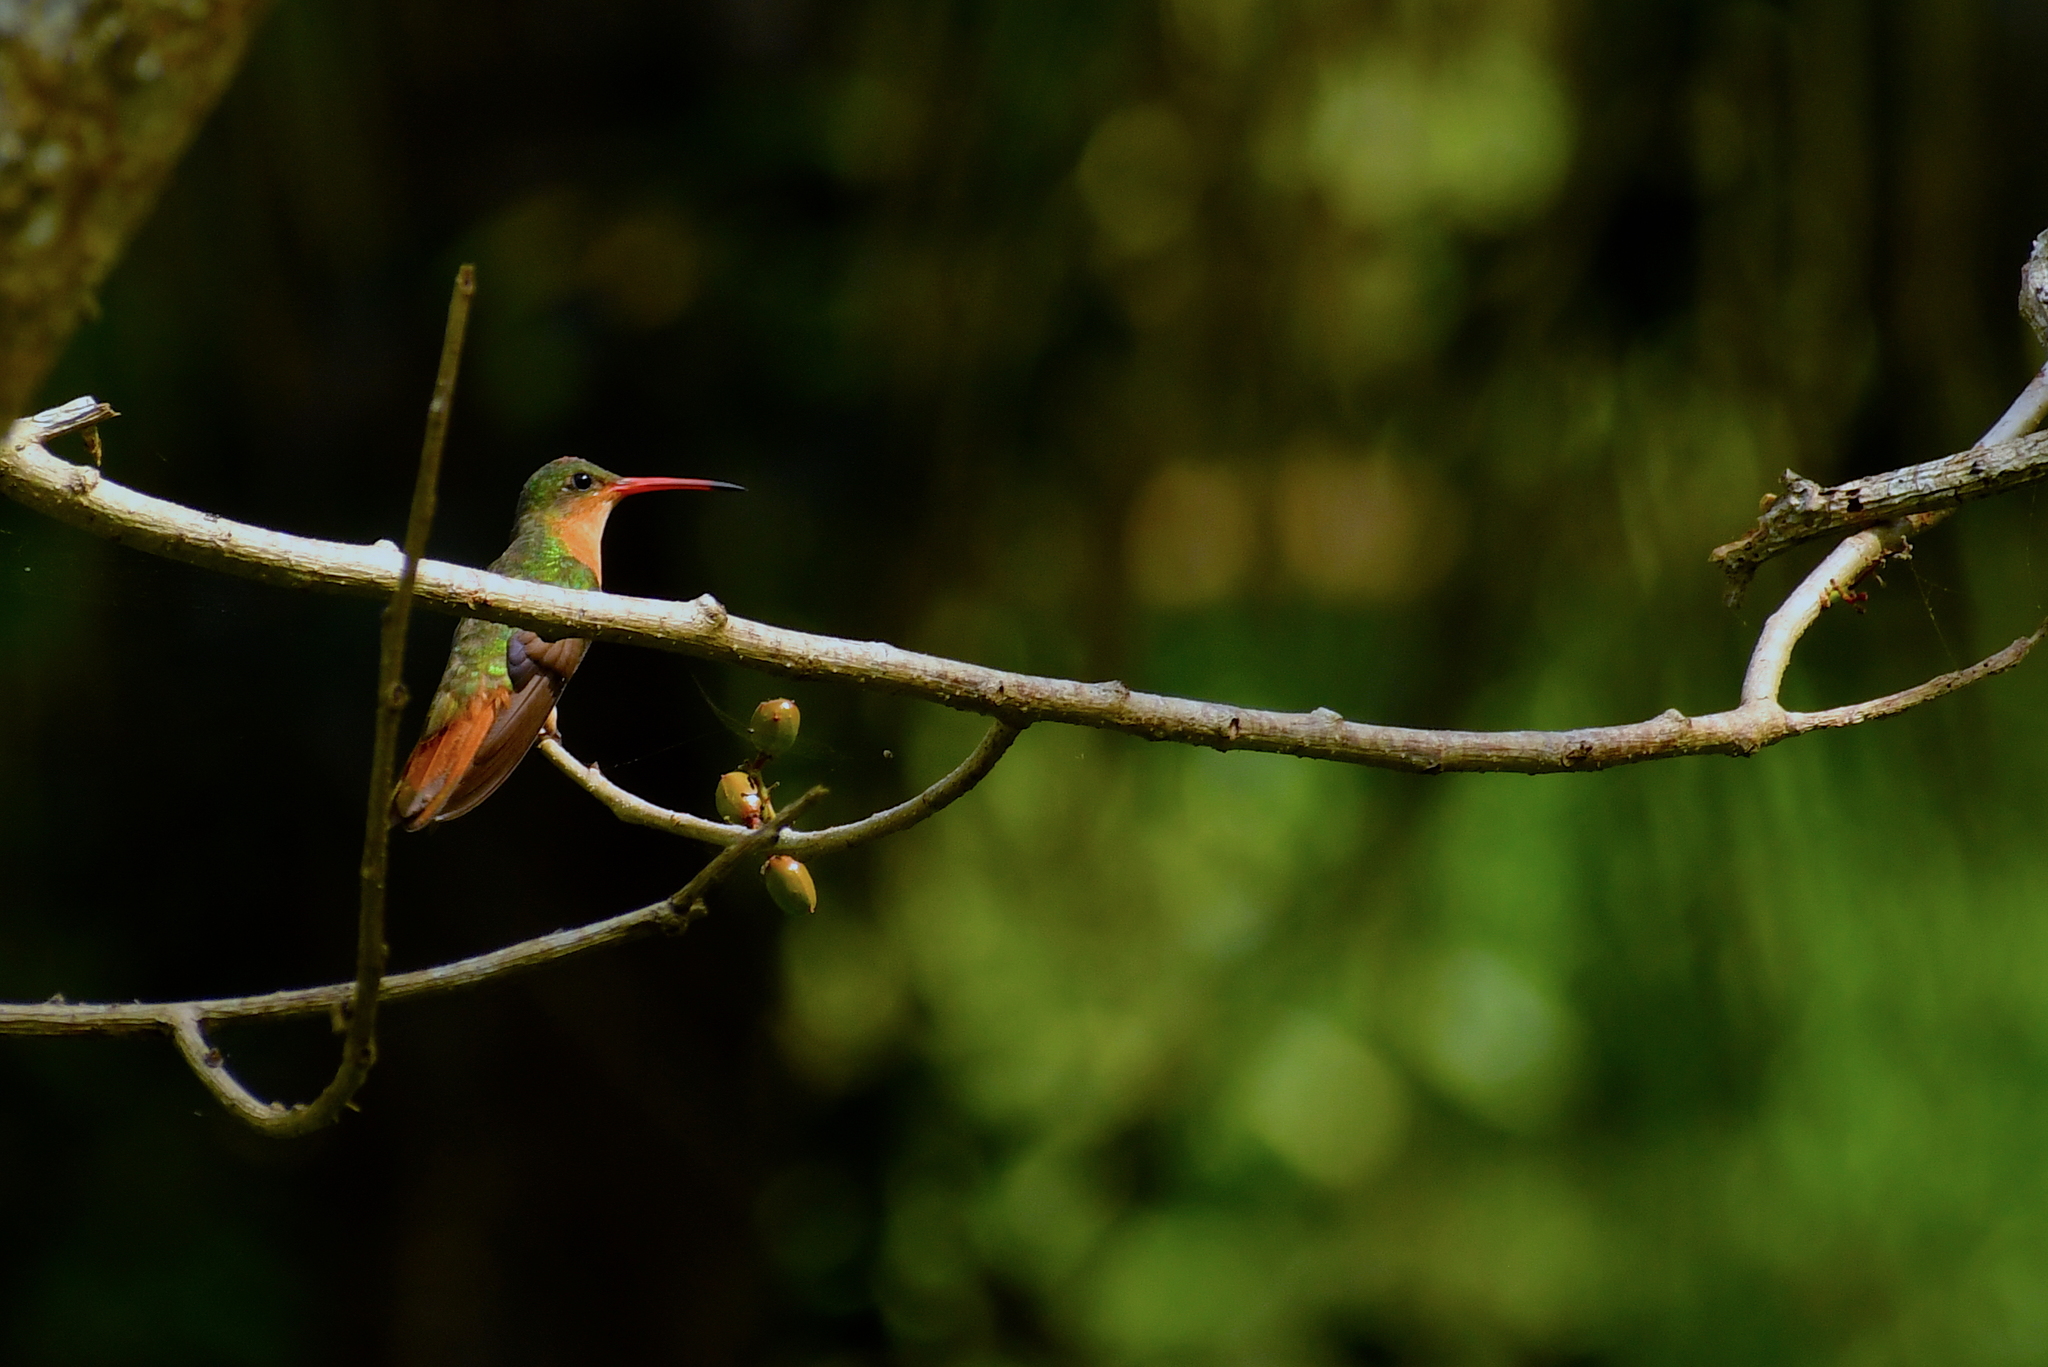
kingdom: Animalia
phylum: Chordata
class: Aves
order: Apodiformes
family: Trochilidae
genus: Amazilia
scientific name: Amazilia rutila
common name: Cinnamon hummingbird
